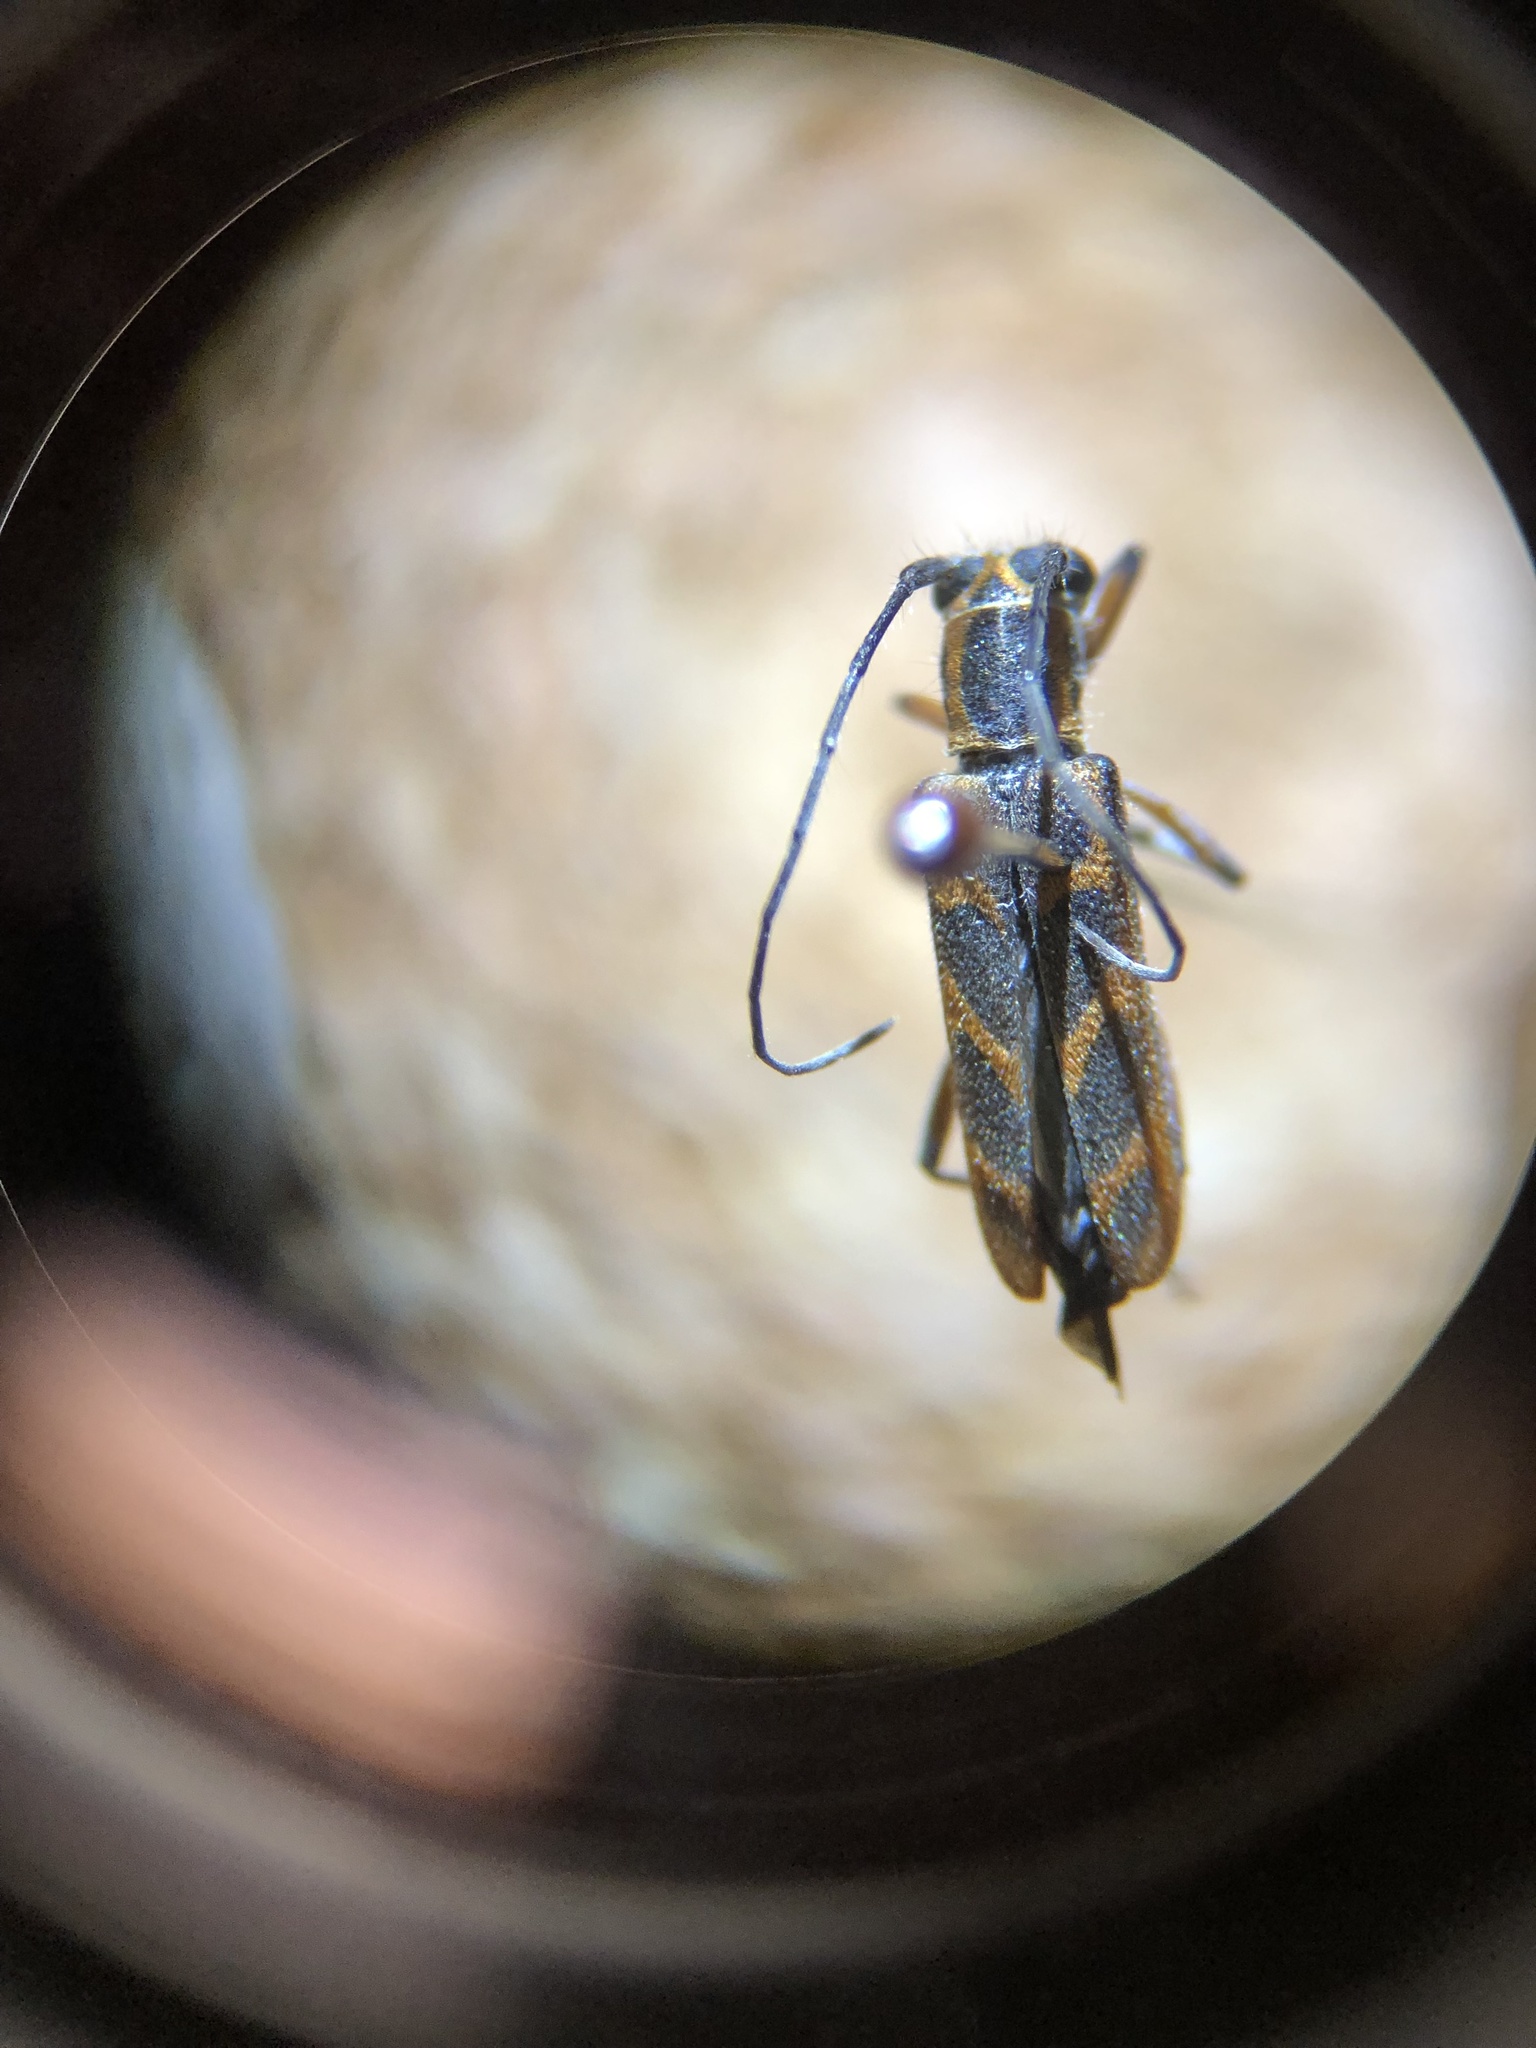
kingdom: Animalia
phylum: Arthropoda
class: Insecta
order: Coleoptera
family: Cerambycidae
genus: Saperda
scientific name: Saperda tridentata
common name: Elm borer
